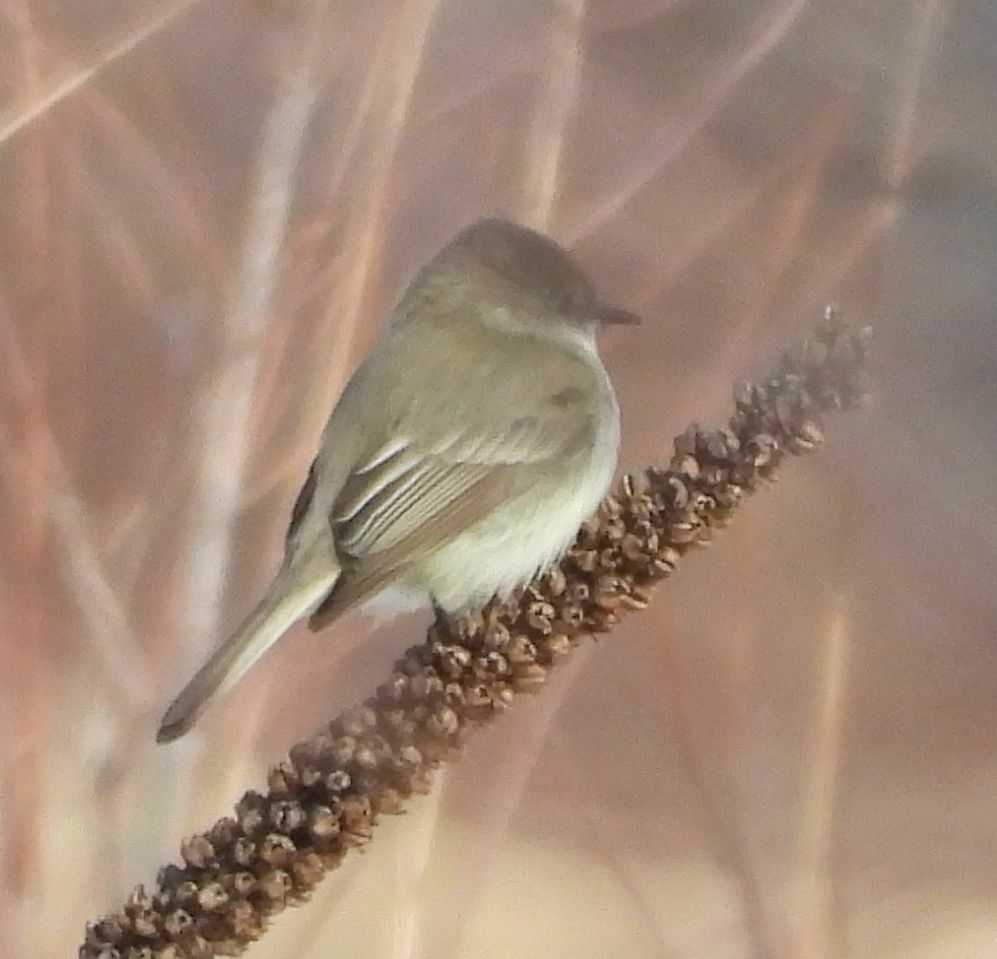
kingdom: Animalia
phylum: Chordata
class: Aves
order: Passeriformes
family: Tyrannidae
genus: Sayornis
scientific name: Sayornis phoebe
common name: Eastern phoebe
